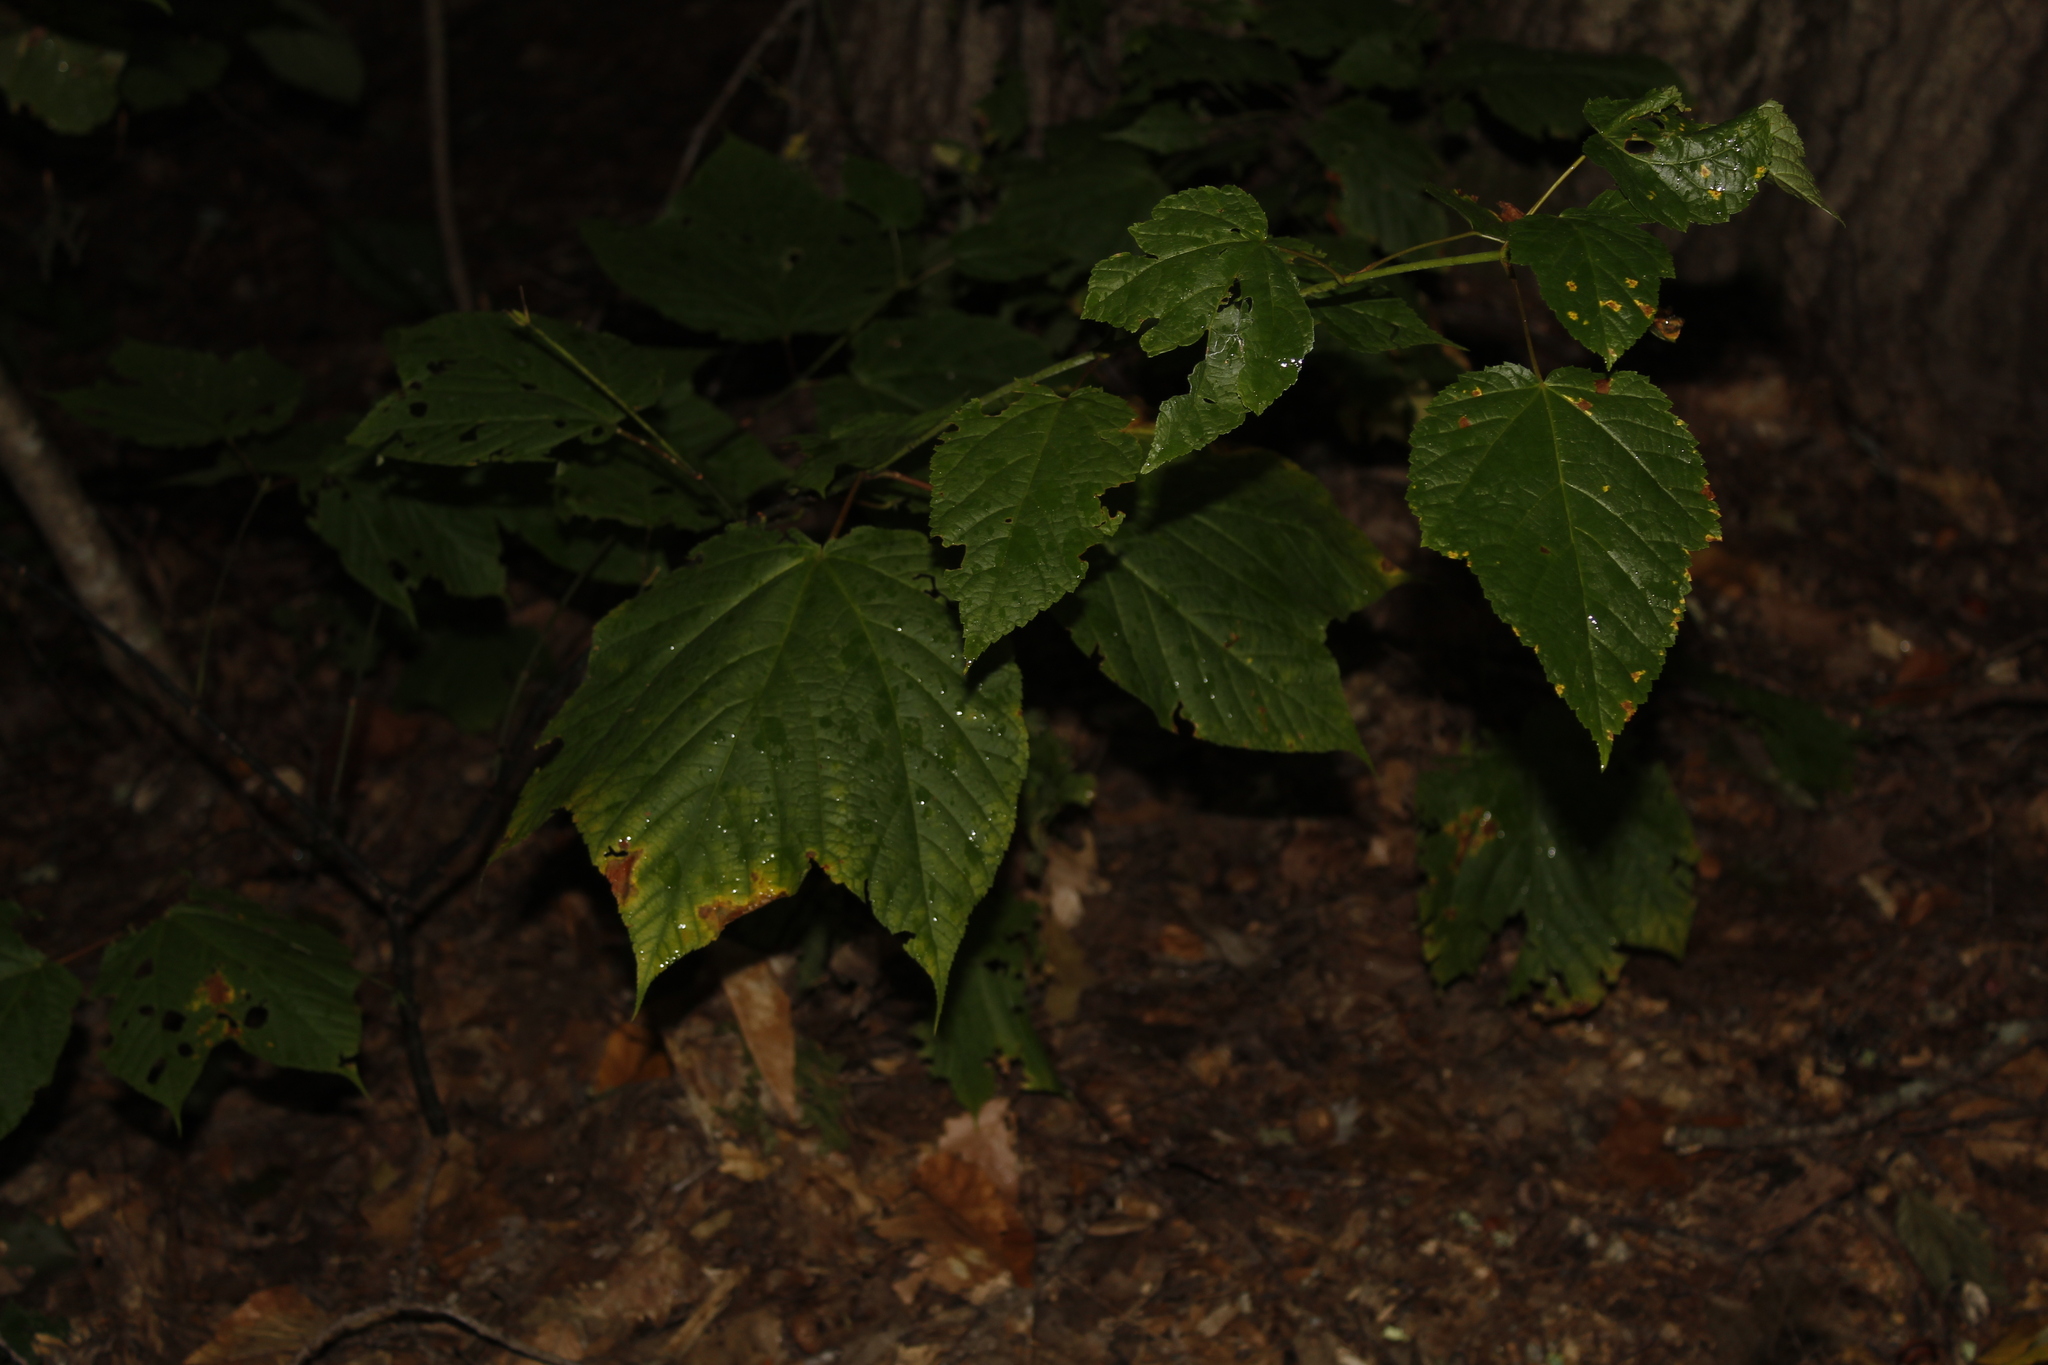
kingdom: Plantae
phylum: Tracheophyta
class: Magnoliopsida
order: Sapindales
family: Sapindaceae
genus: Acer
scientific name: Acer pensylvanicum
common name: Moosewood
